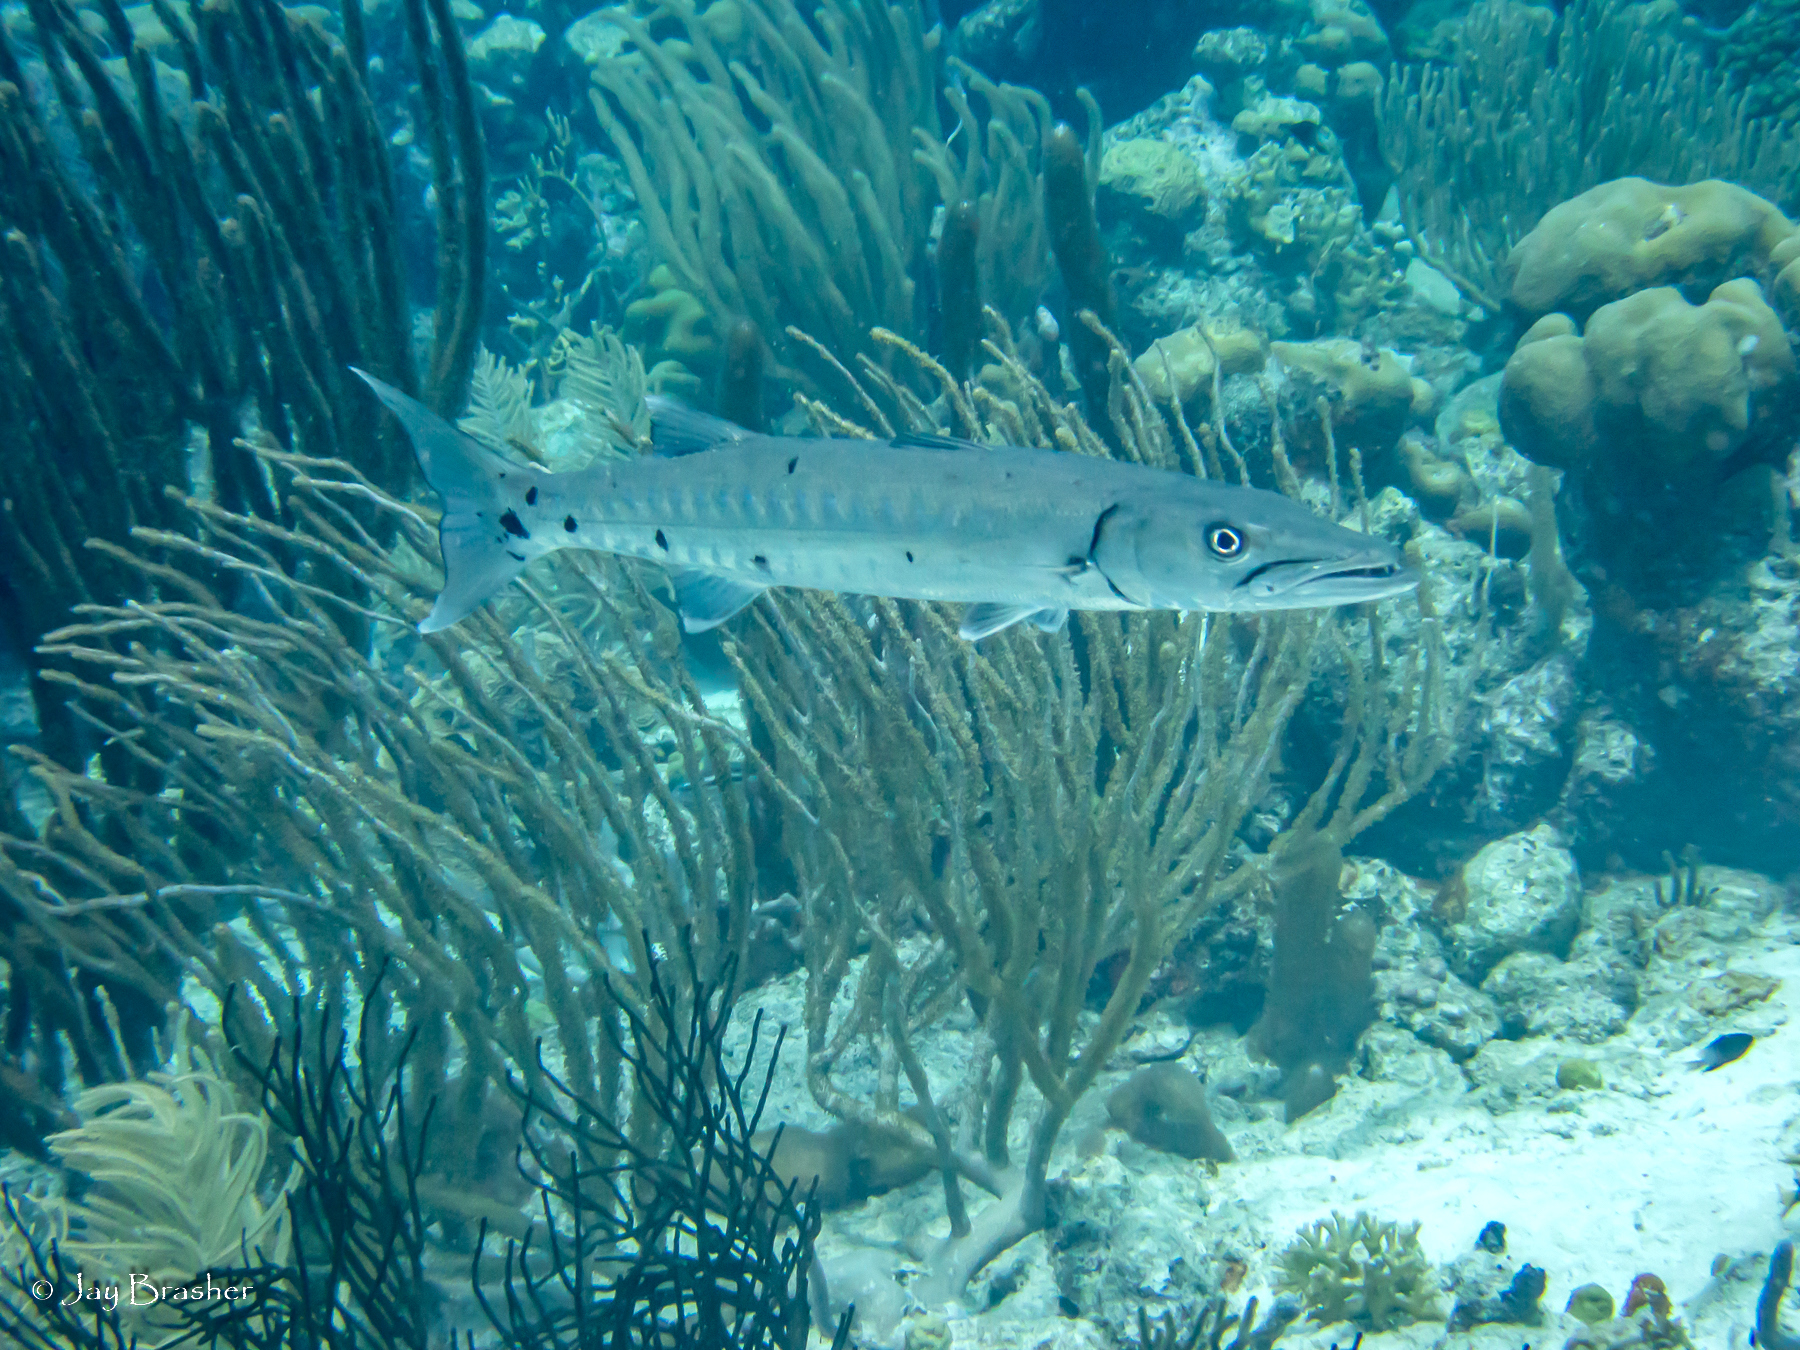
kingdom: Animalia
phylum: Chordata
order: Perciformes
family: Sphyraenidae
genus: Sphyraena
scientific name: Sphyraena barracuda
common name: Great barracuda
